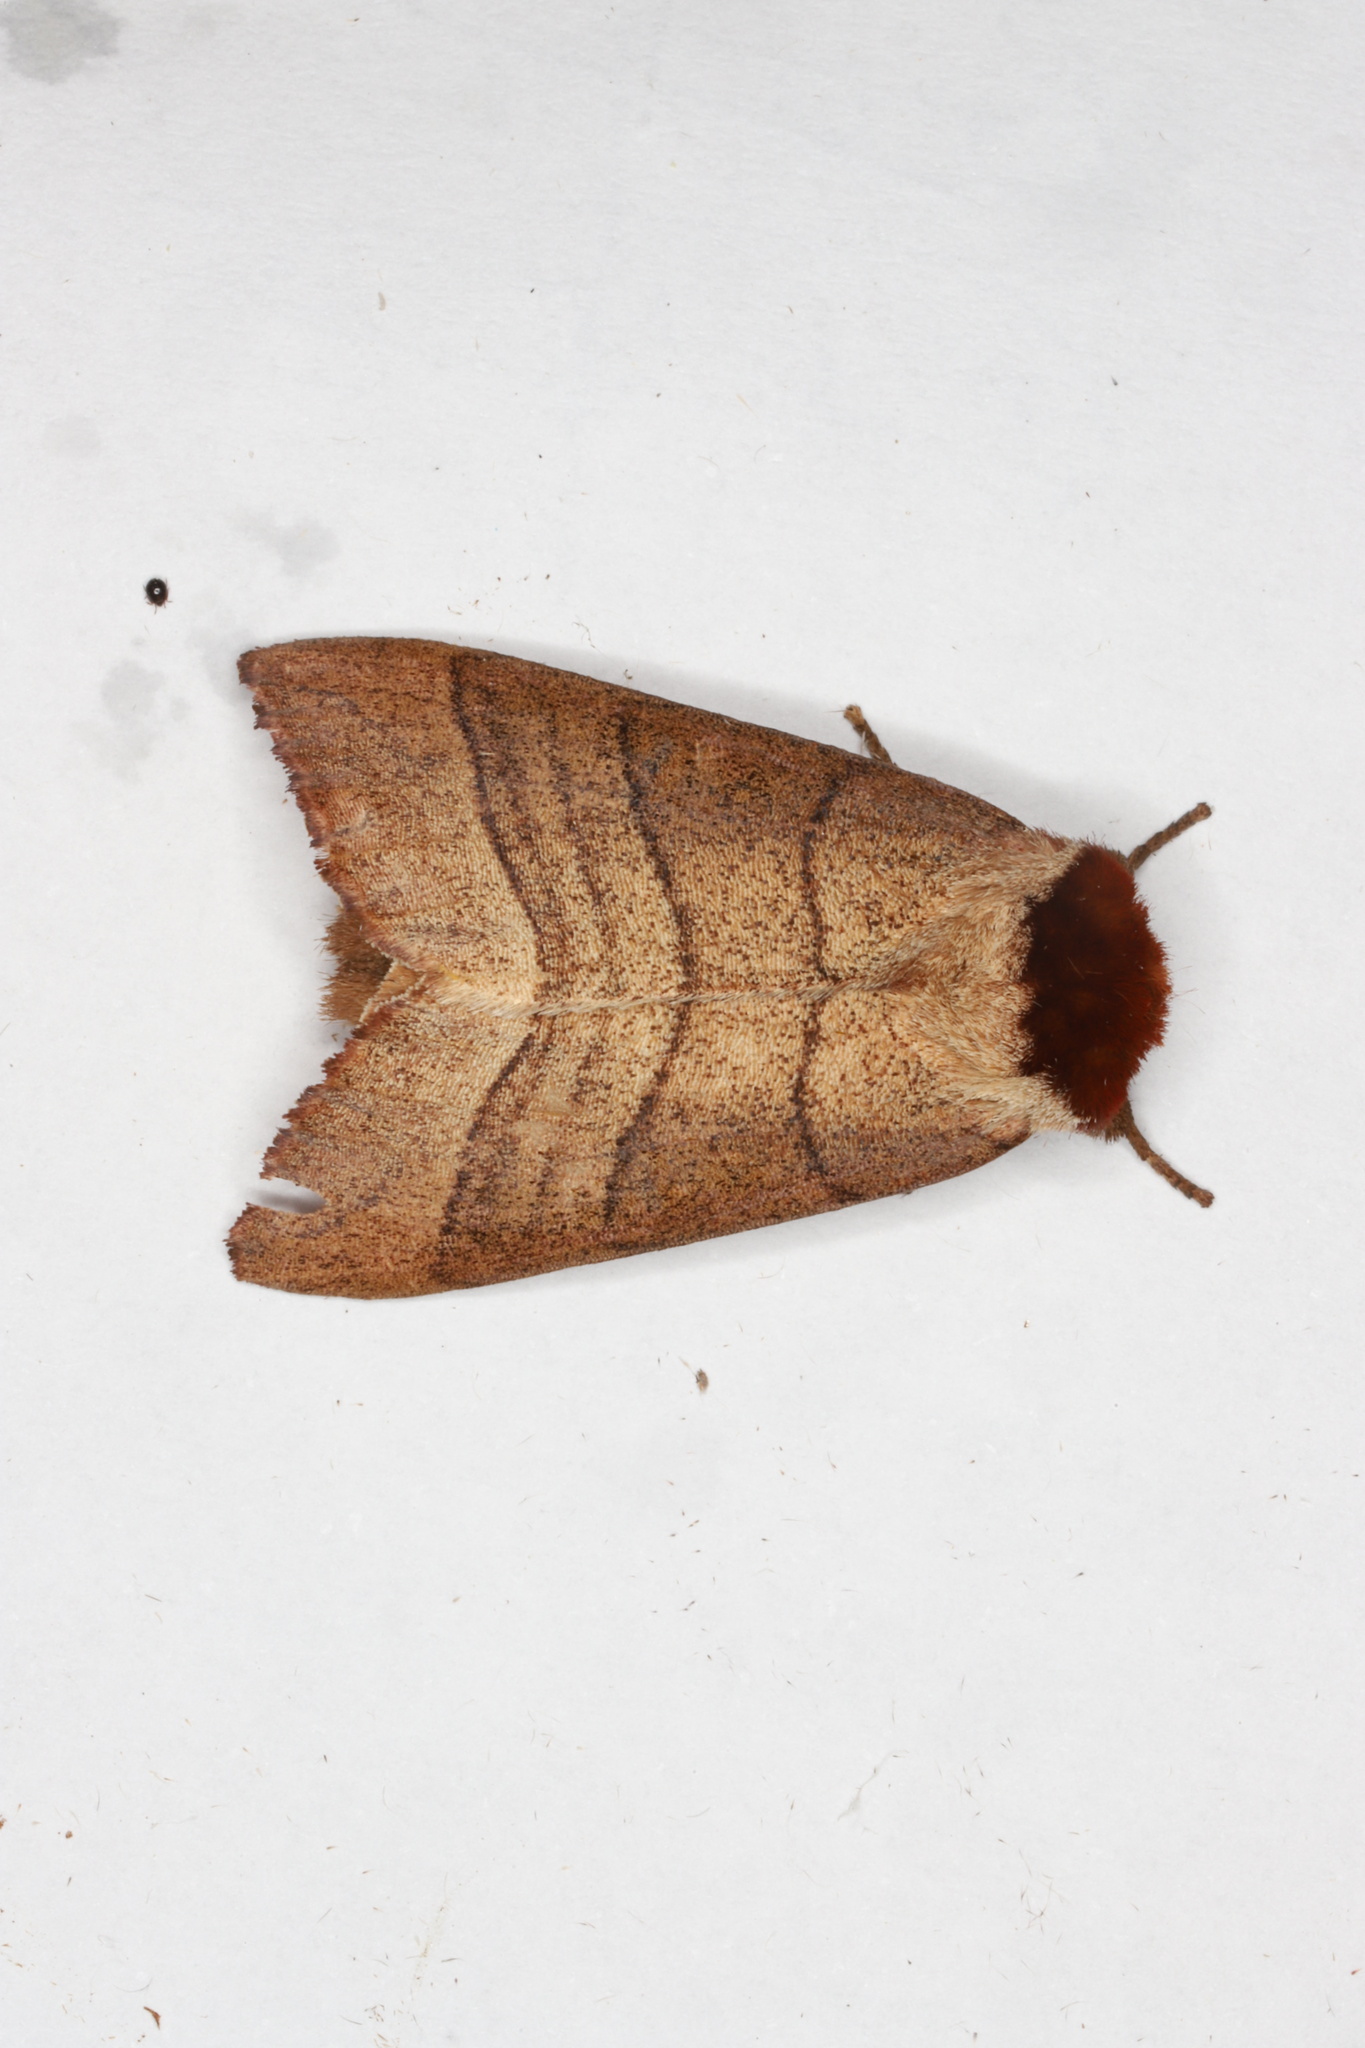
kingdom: Animalia
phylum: Arthropoda
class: Insecta
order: Lepidoptera
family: Notodontidae
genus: Datana
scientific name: Datana ministra
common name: Yellow-necked caterpillar moth
